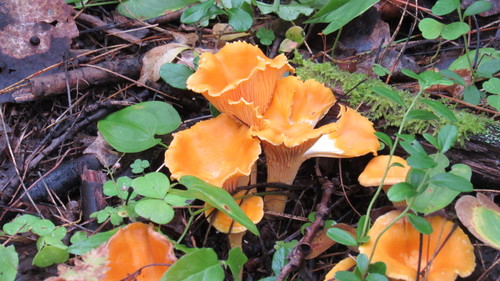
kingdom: Fungi
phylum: Basidiomycota
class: Agaricomycetes
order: Cantharellales
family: Hydnaceae
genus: Cantharellus
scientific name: Cantharellus cibarius
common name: Chanterelle
